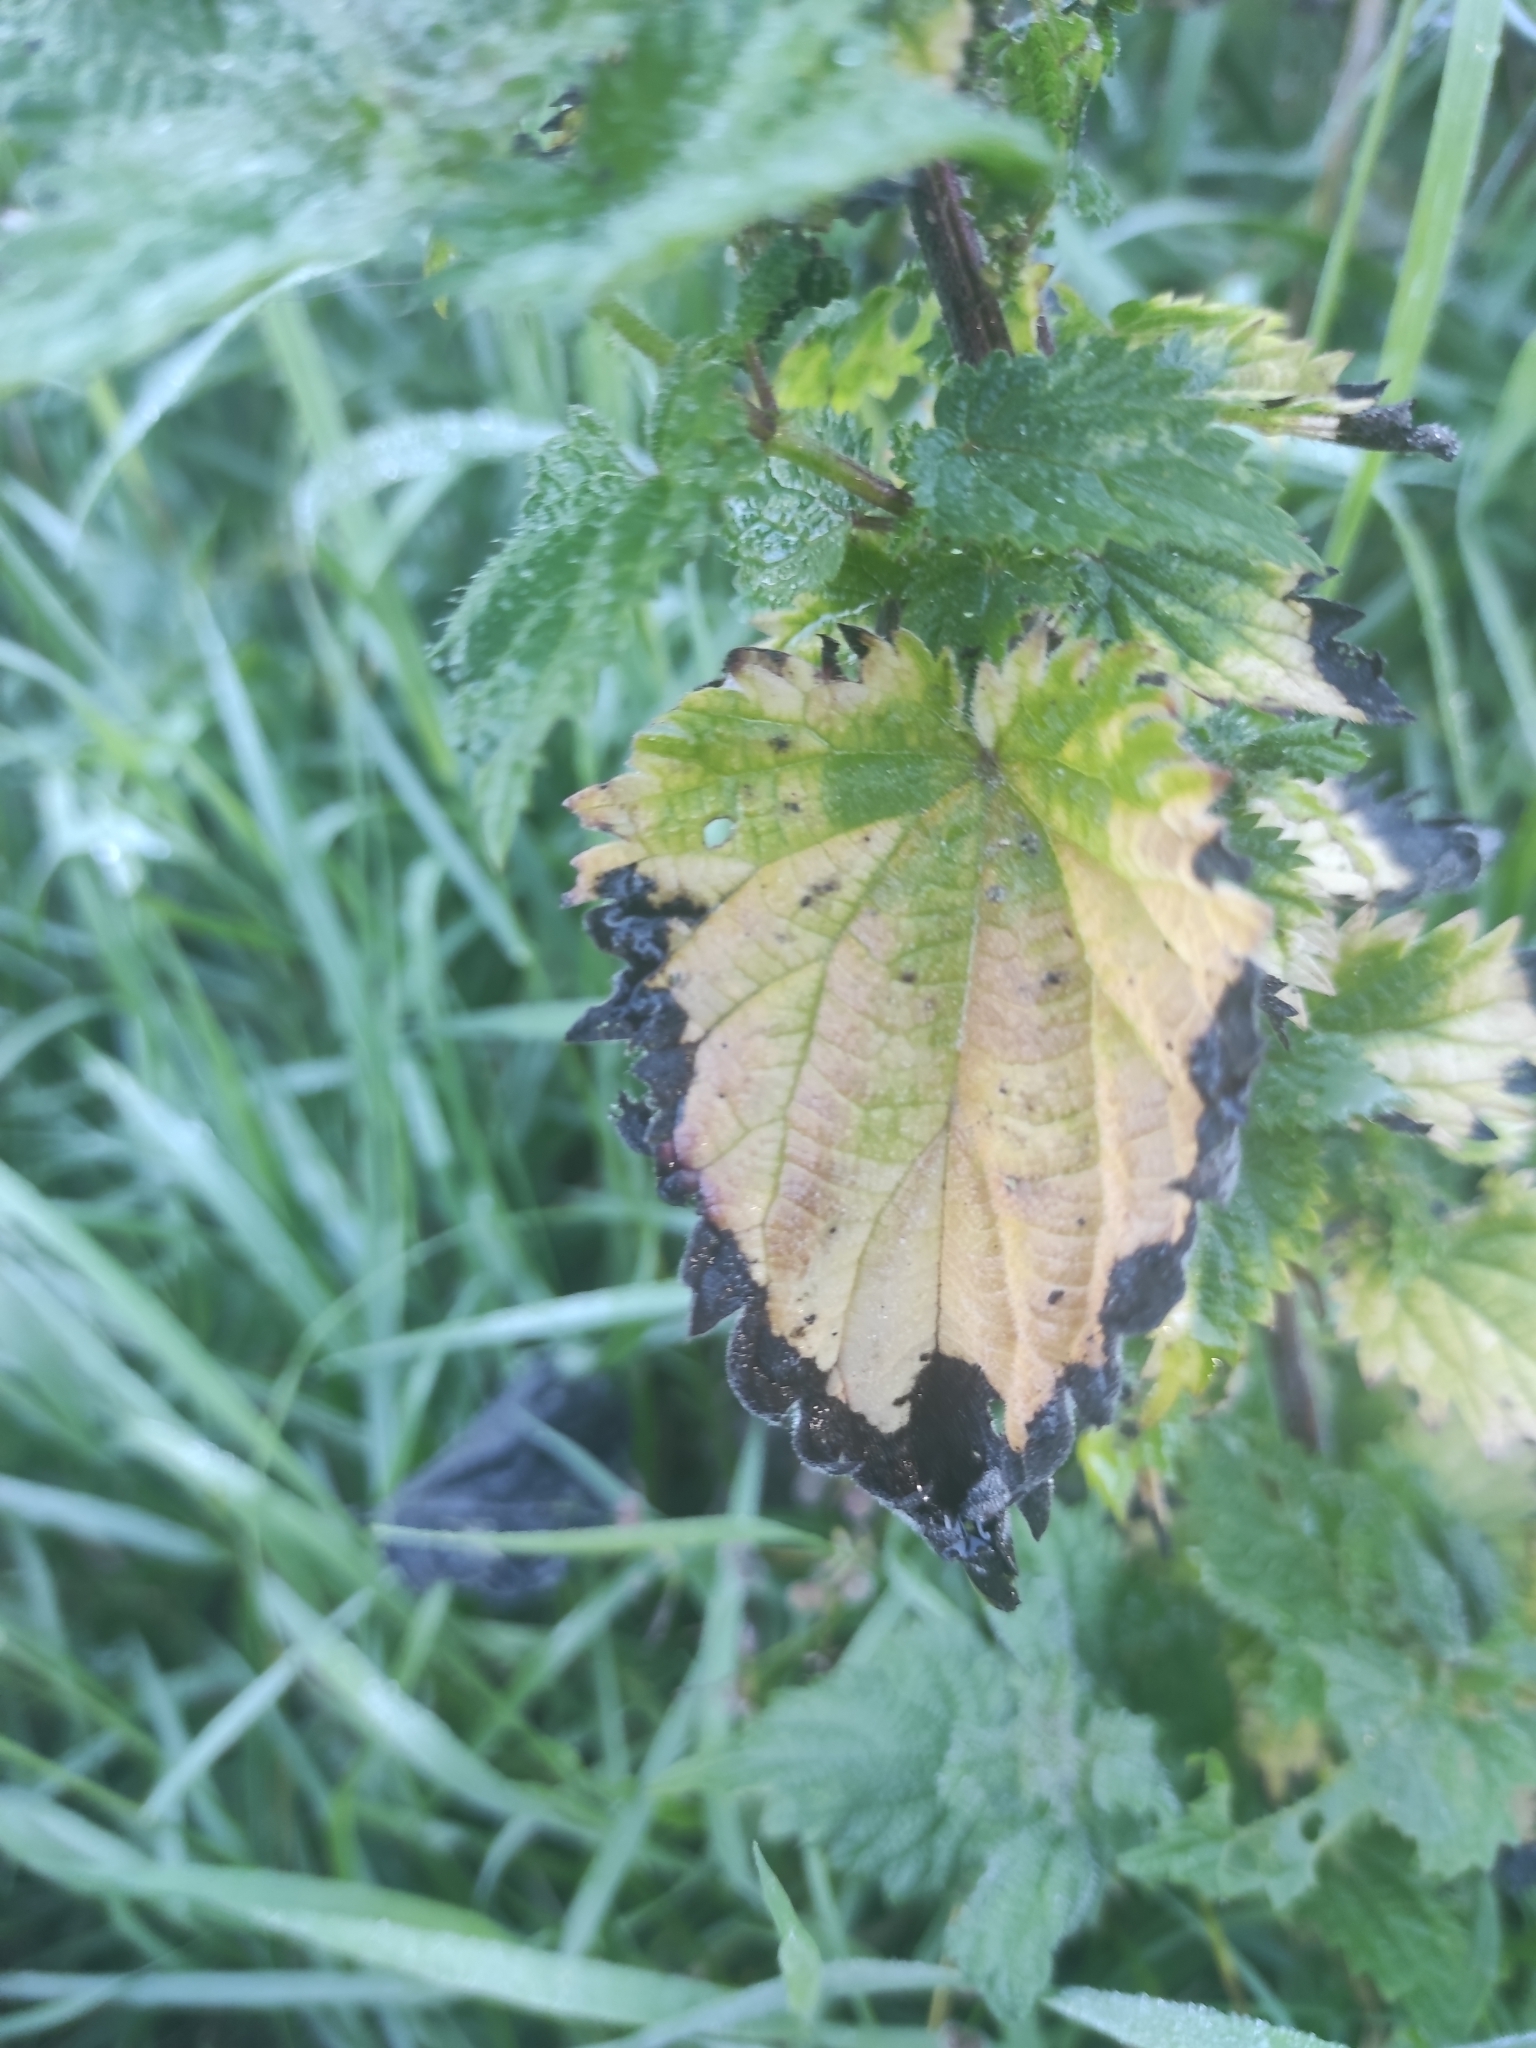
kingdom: Plantae
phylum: Tracheophyta
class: Magnoliopsida
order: Rosales
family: Urticaceae
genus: Urtica
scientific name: Urtica dioica
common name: Common nettle
